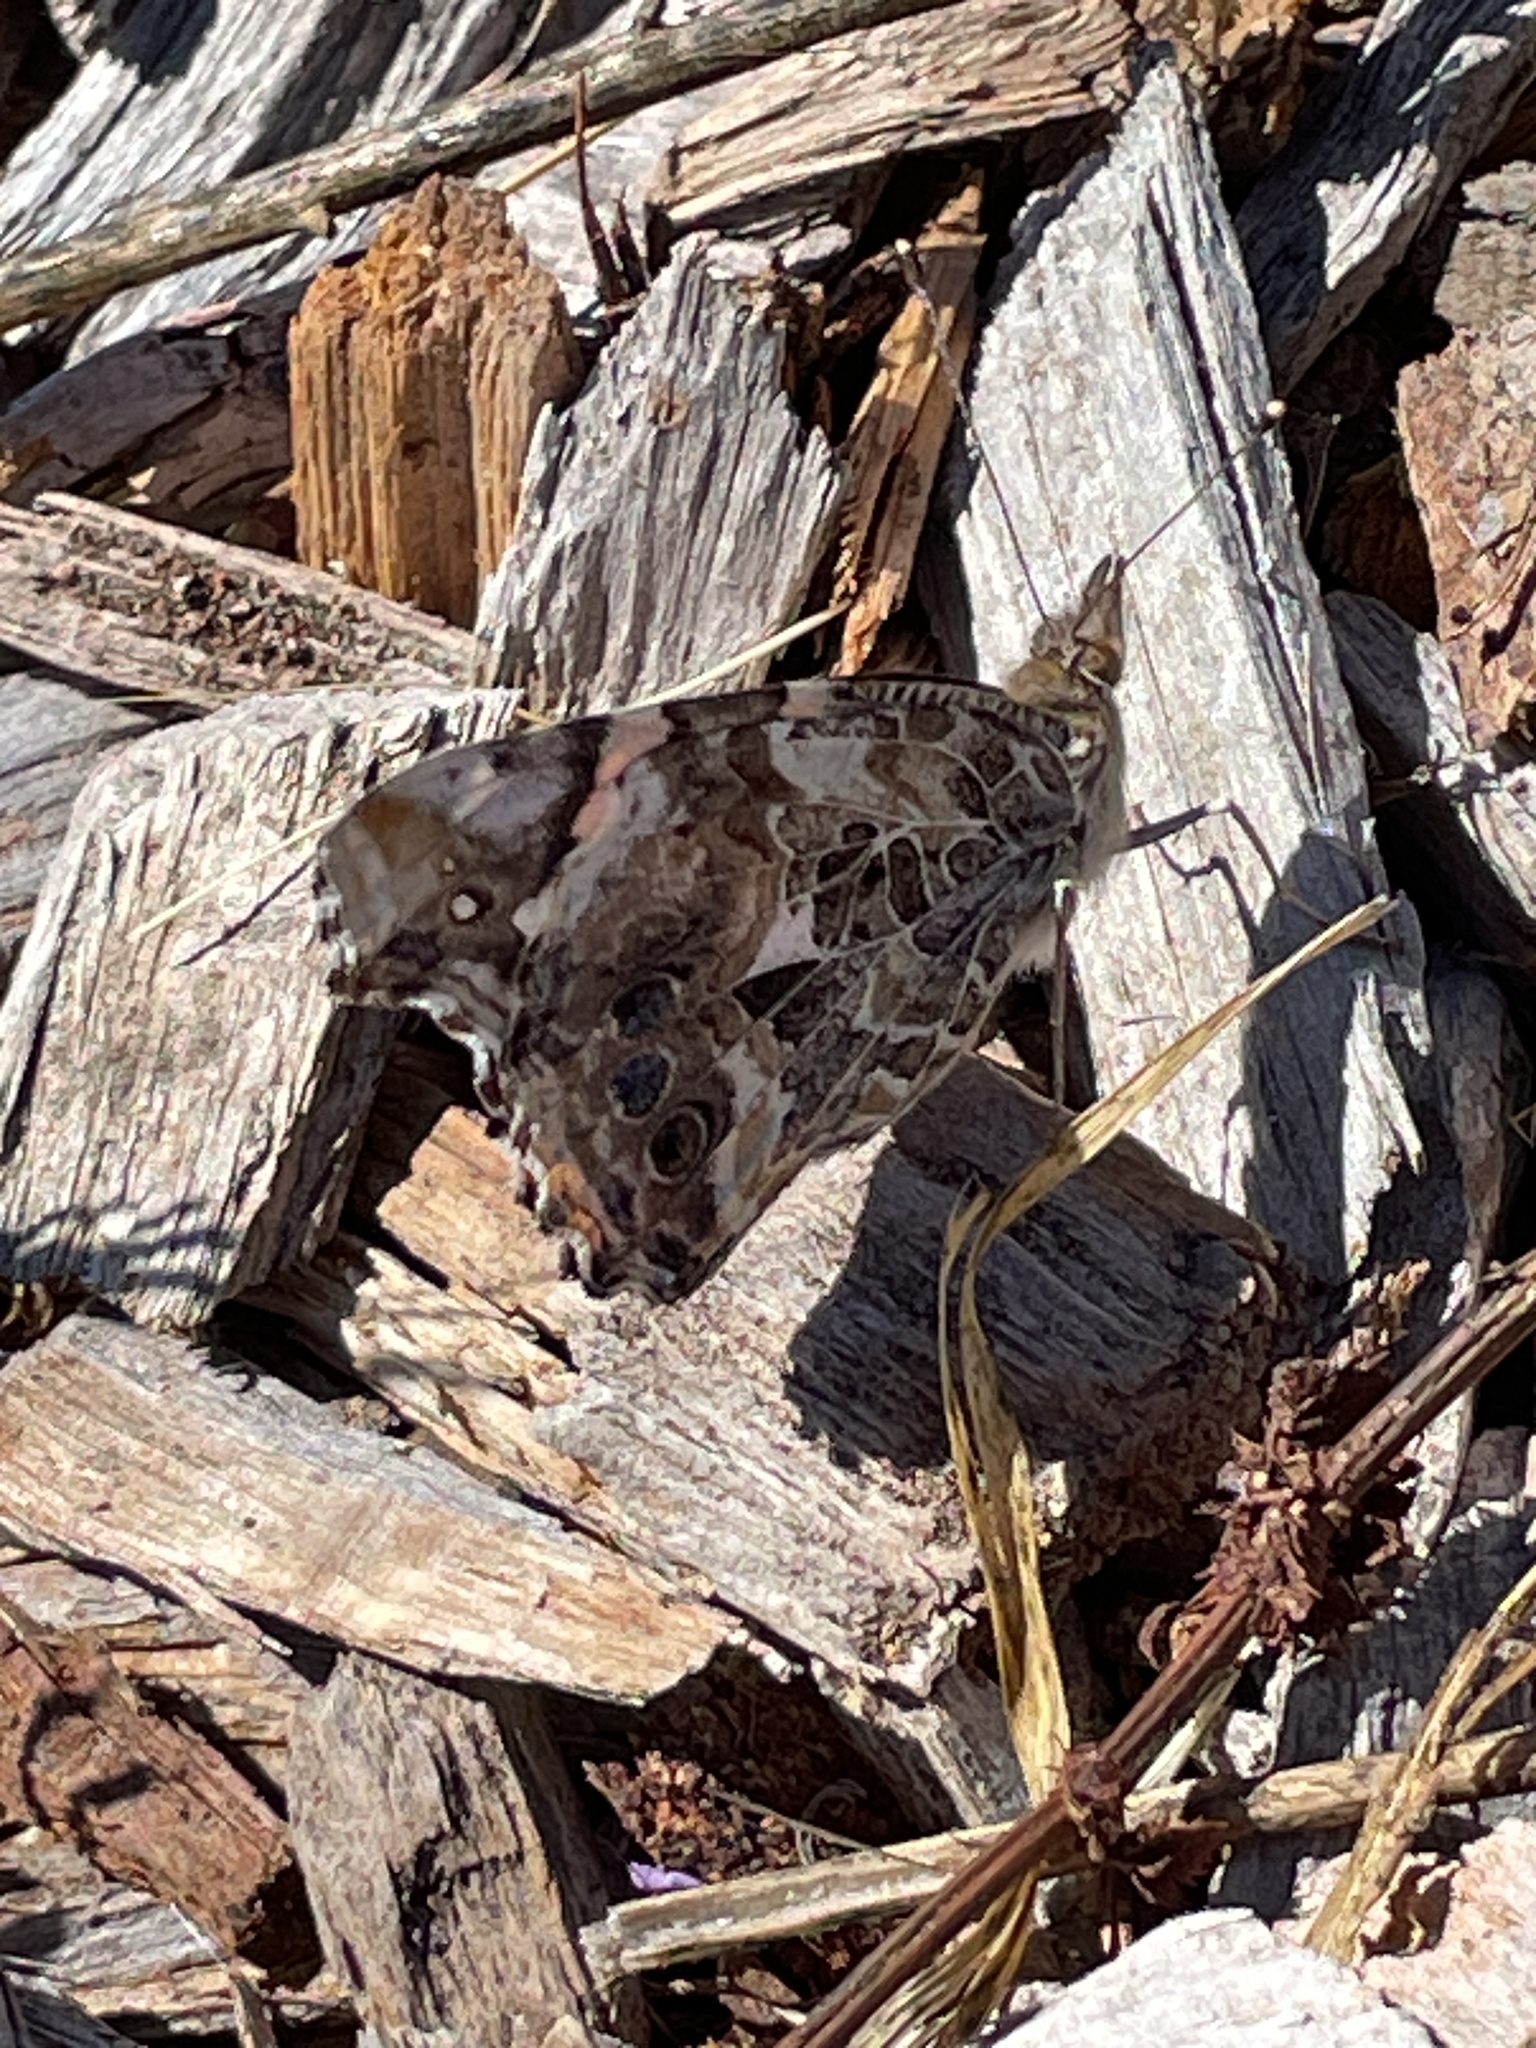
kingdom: Animalia
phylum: Arthropoda
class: Insecta
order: Lepidoptera
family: Nymphalidae
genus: Vanessa
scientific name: Vanessa annabella
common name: West coast lady
